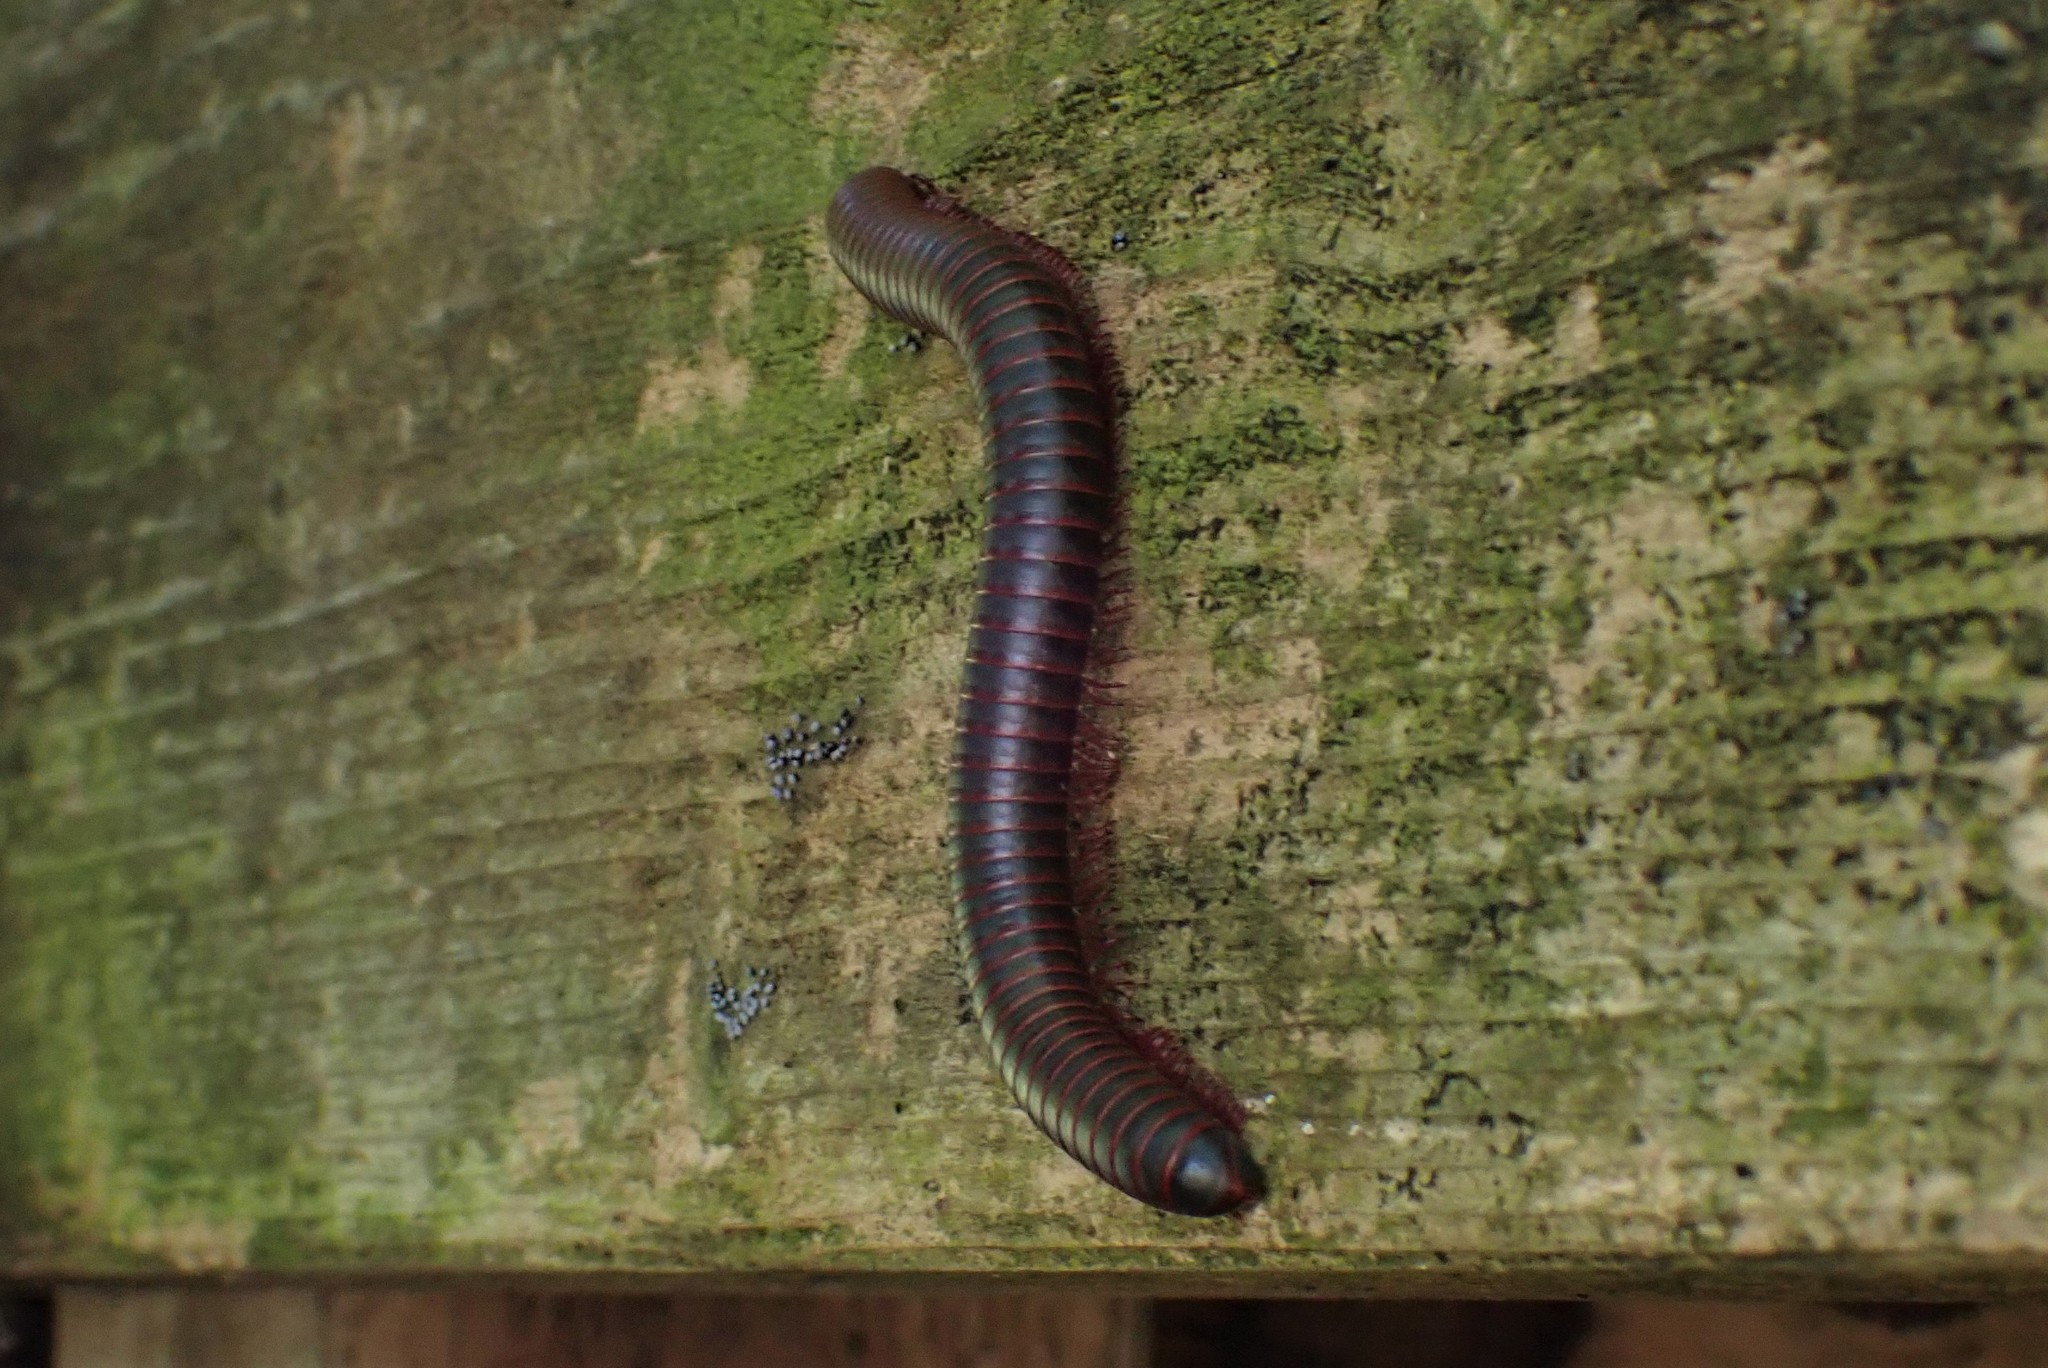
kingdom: Animalia
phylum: Arthropoda
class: Diplopoda
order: Spirobolida
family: Spirobolidae
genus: Narceus
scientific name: Narceus
